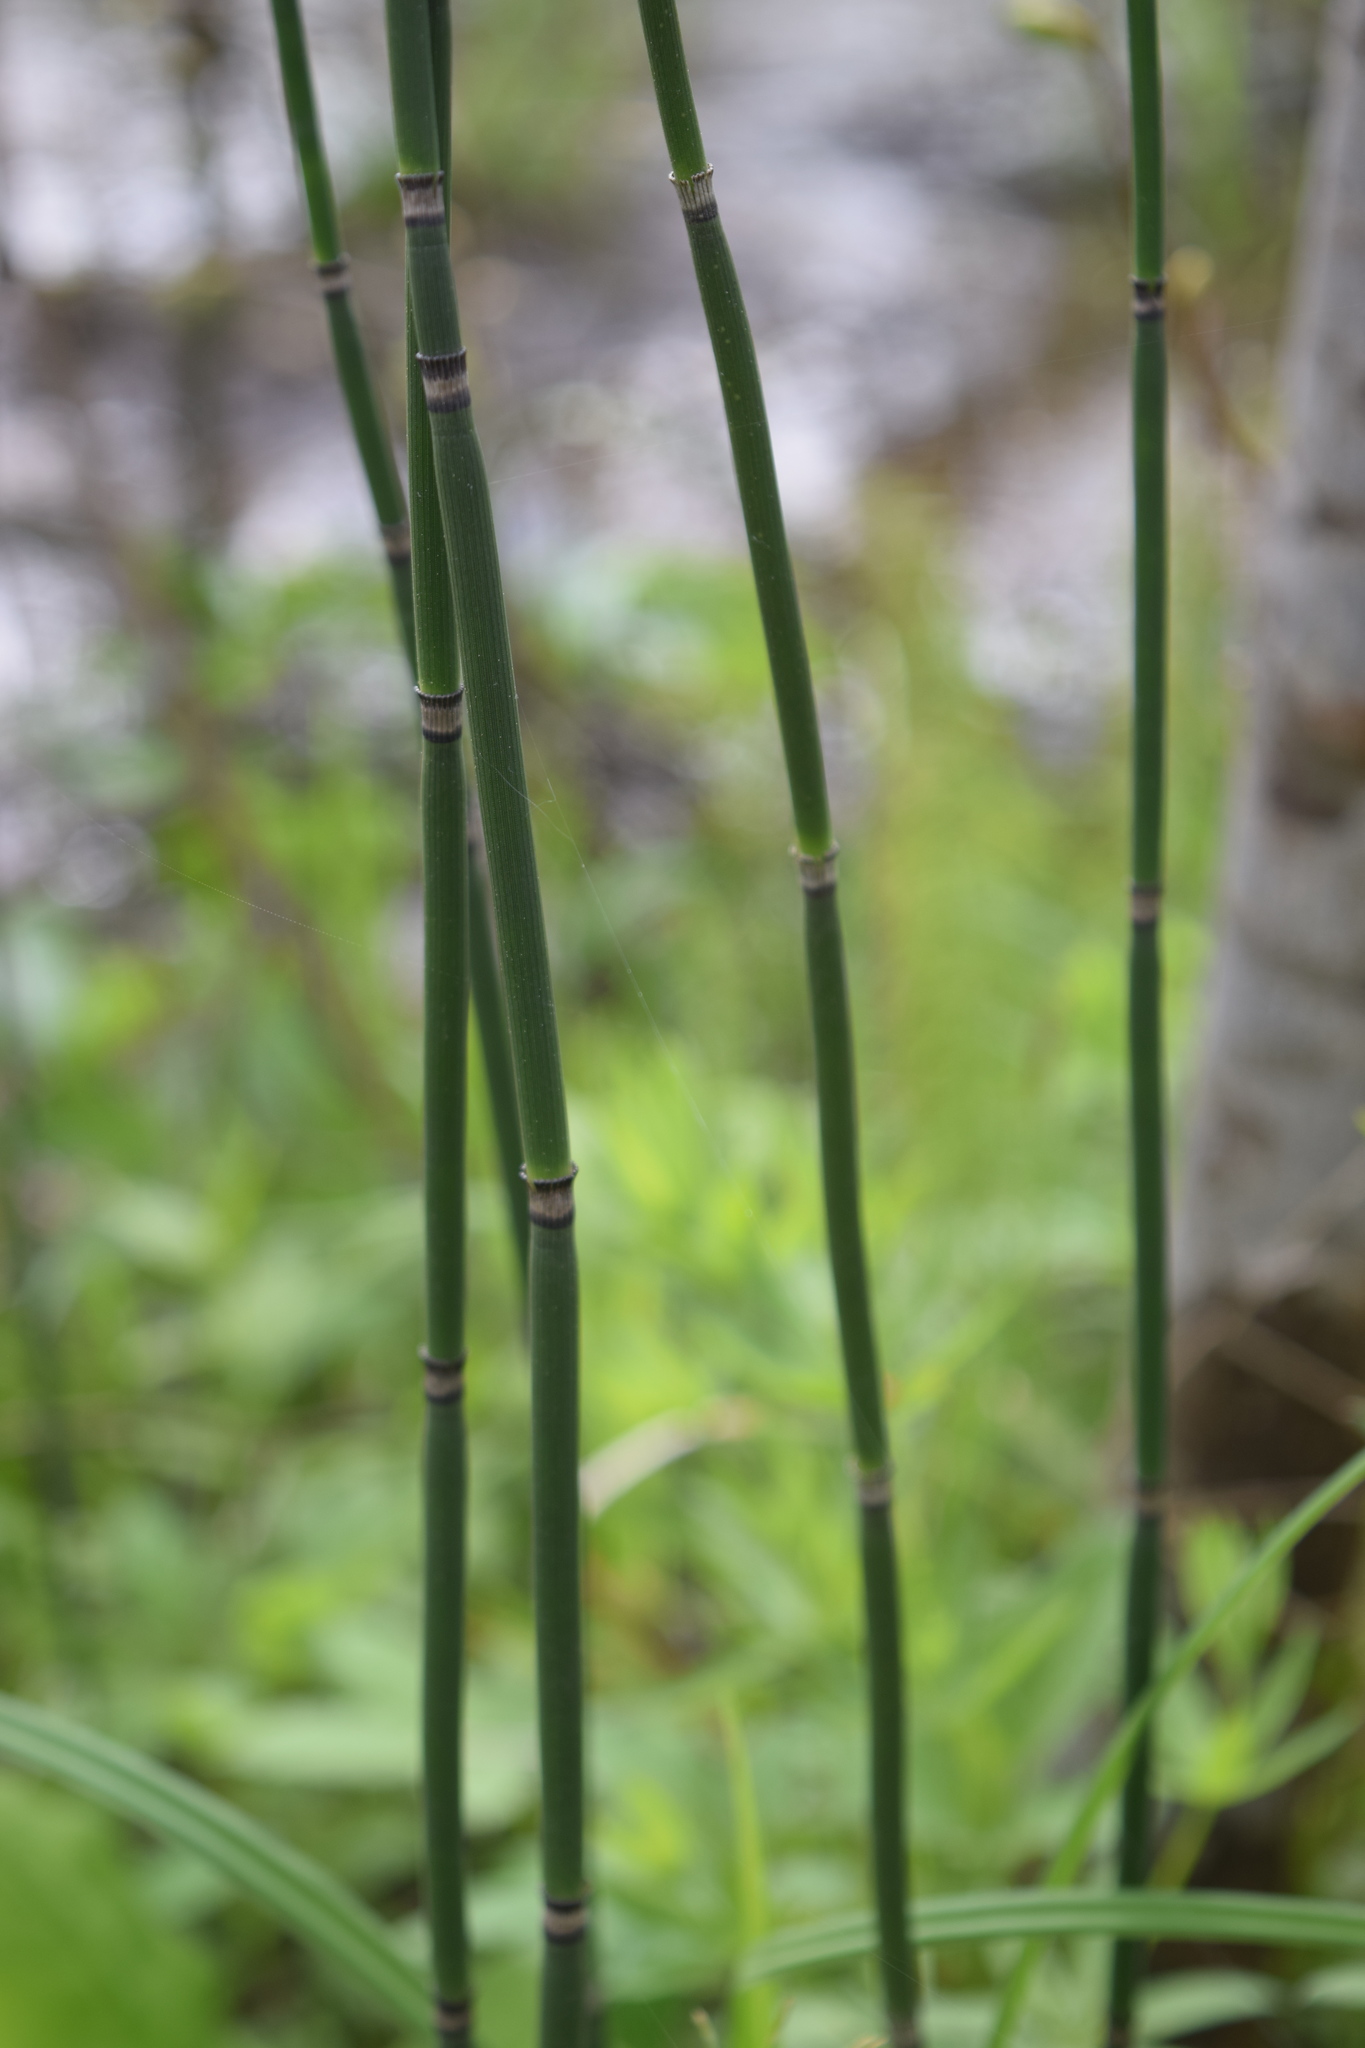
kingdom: Plantae
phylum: Tracheophyta
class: Polypodiopsida
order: Equisetales
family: Equisetaceae
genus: Equisetum
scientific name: Equisetum hyemale
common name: Rough horsetail
